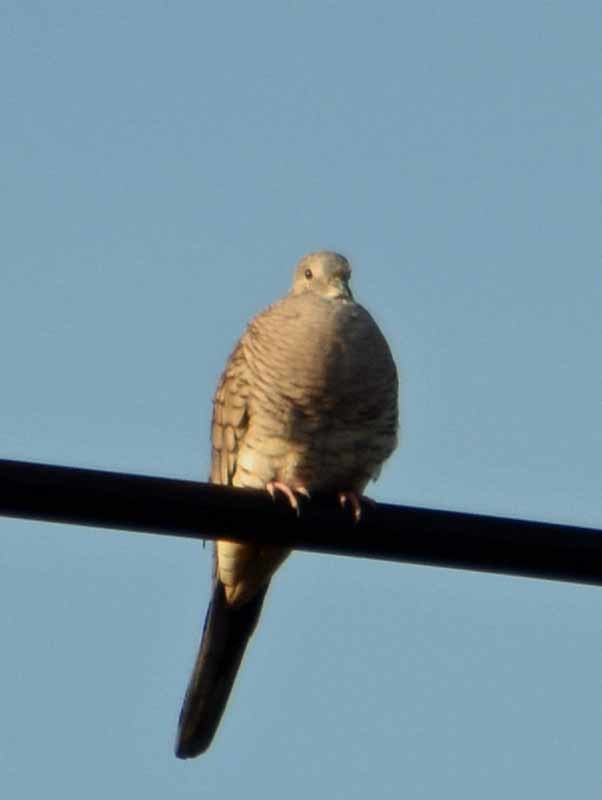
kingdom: Animalia
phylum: Chordata
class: Aves
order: Columbiformes
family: Columbidae
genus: Columbina
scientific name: Columbina inca
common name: Inca dove
